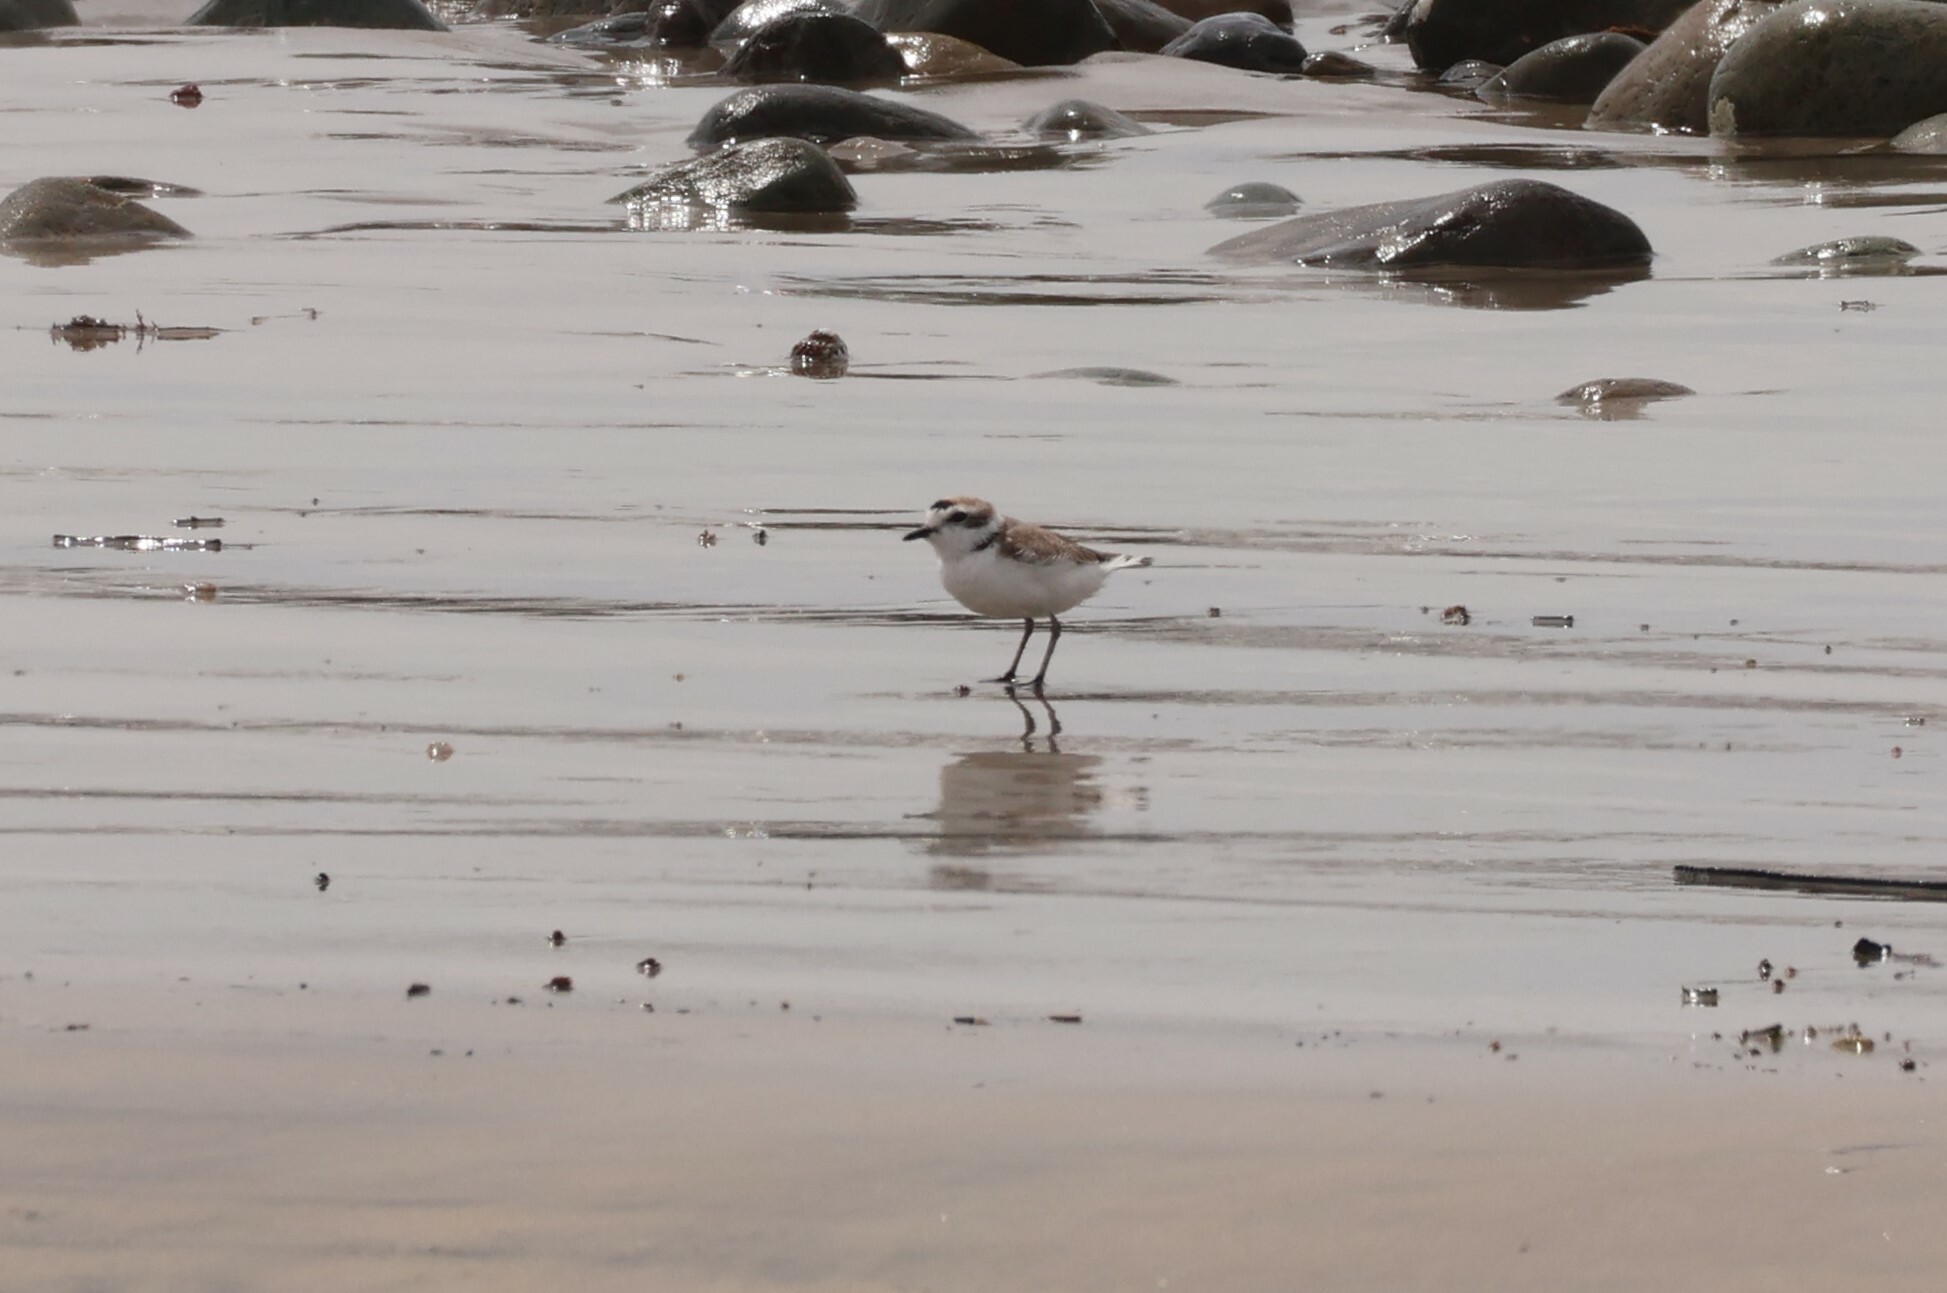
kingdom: Animalia
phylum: Chordata
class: Aves
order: Charadriiformes
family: Charadriidae
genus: Anarhynchus
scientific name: Anarhynchus
